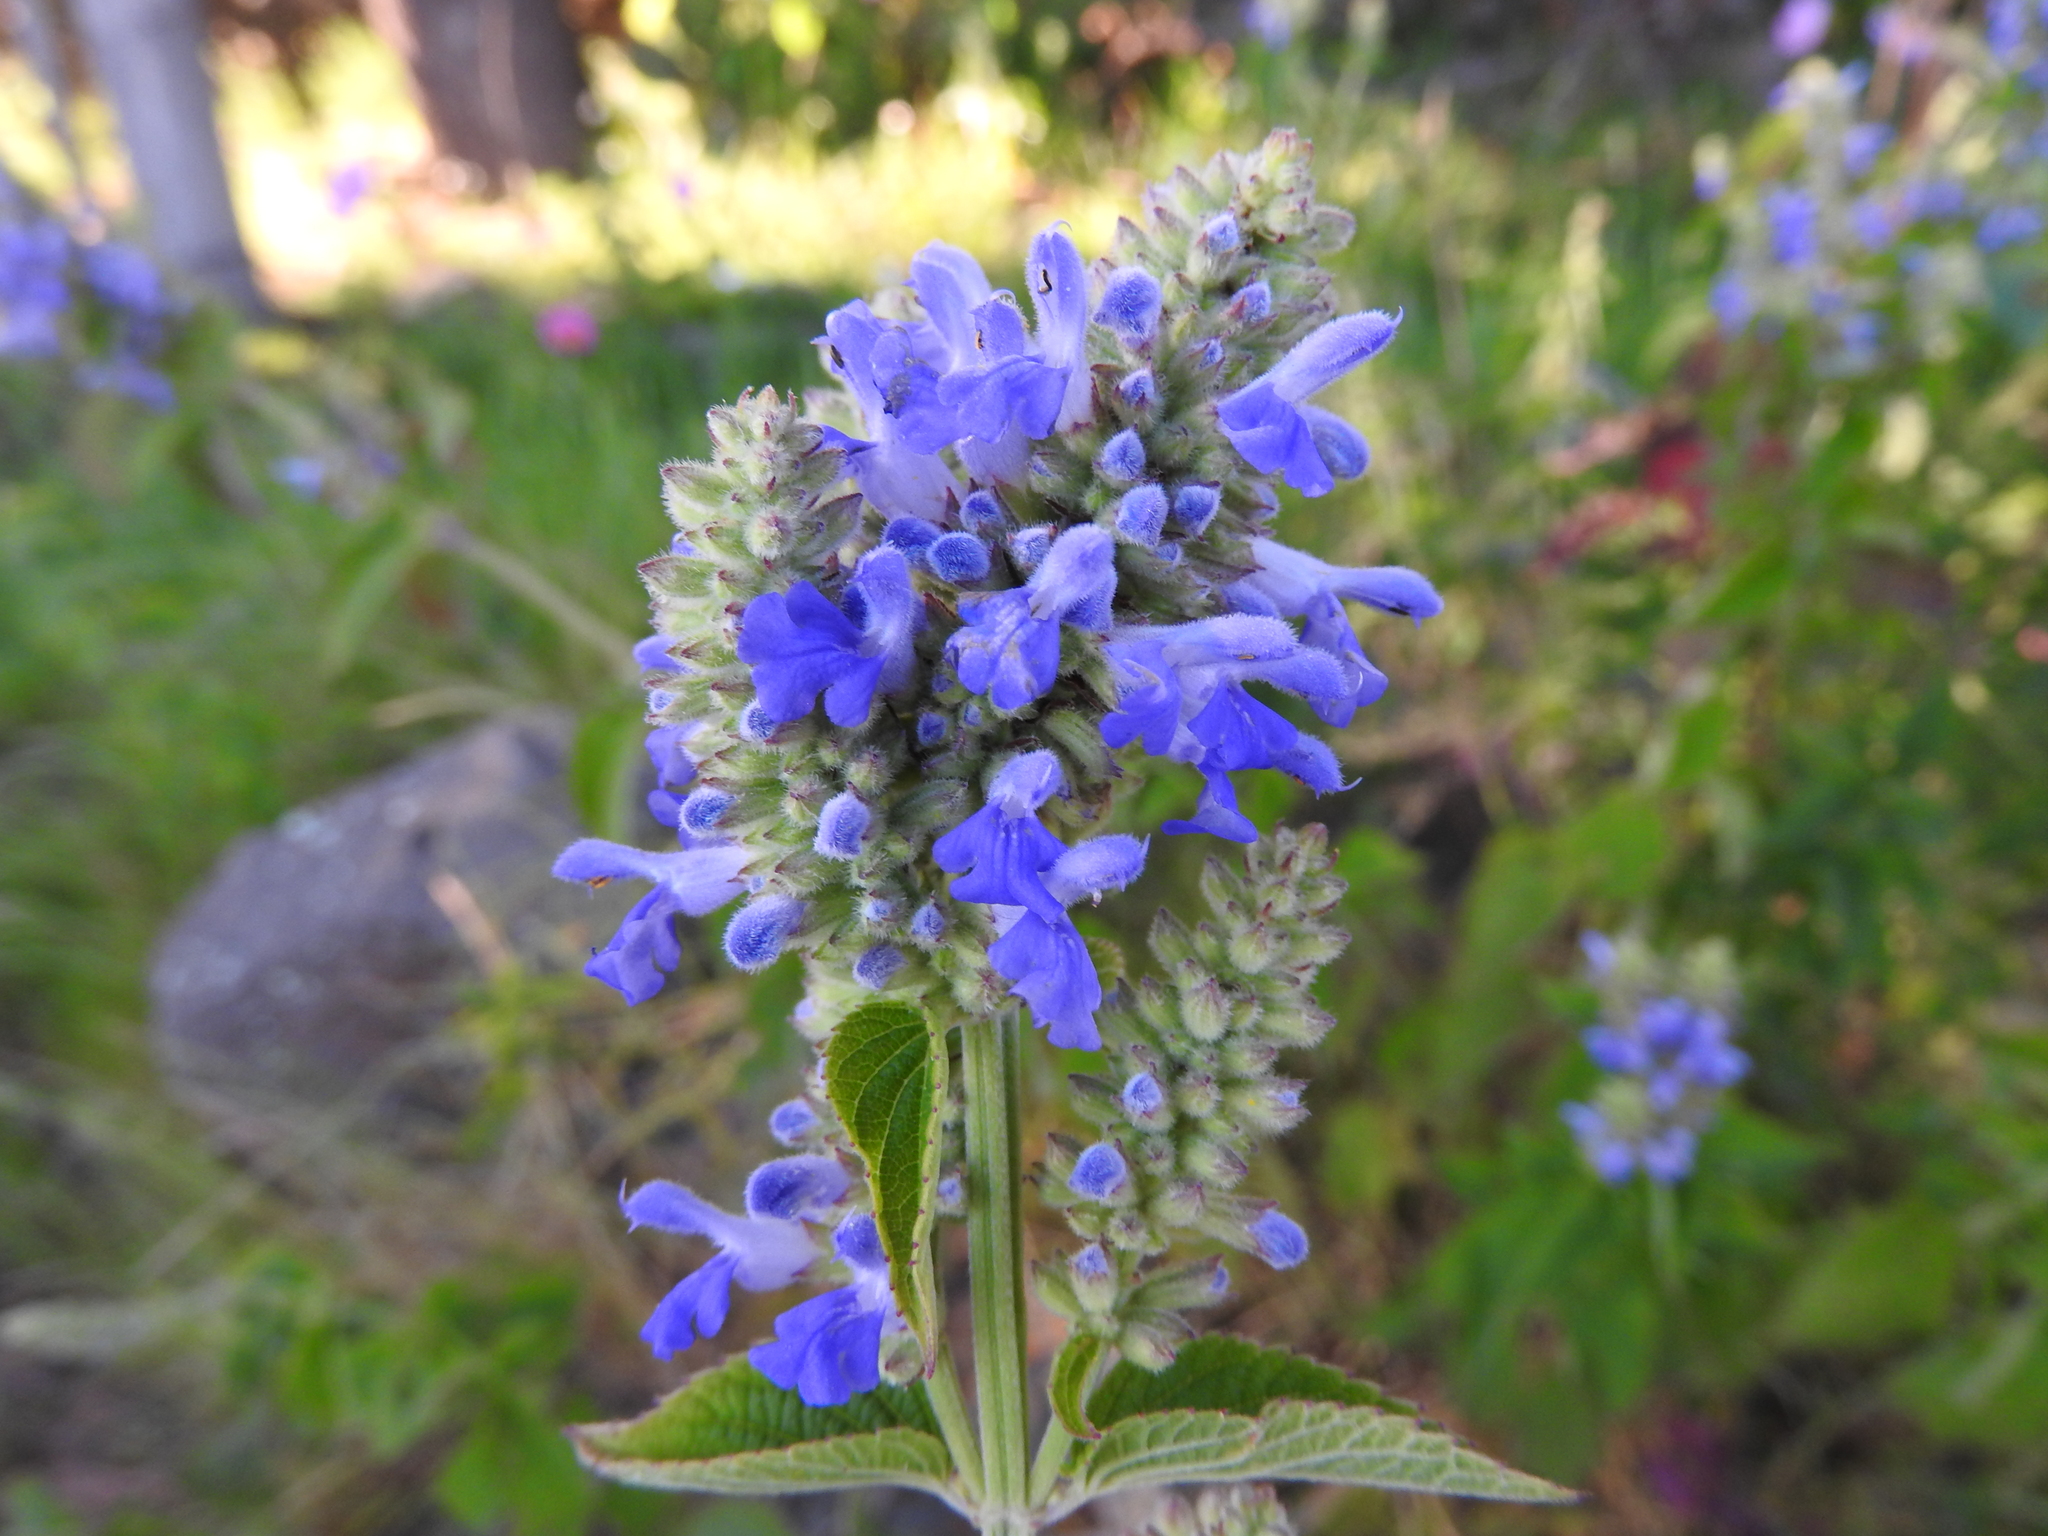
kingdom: Plantae
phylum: Tracheophyta
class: Magnoliopsida
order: Lamiales
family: Lamiaceae
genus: Salvia
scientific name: Salvia polystachia
